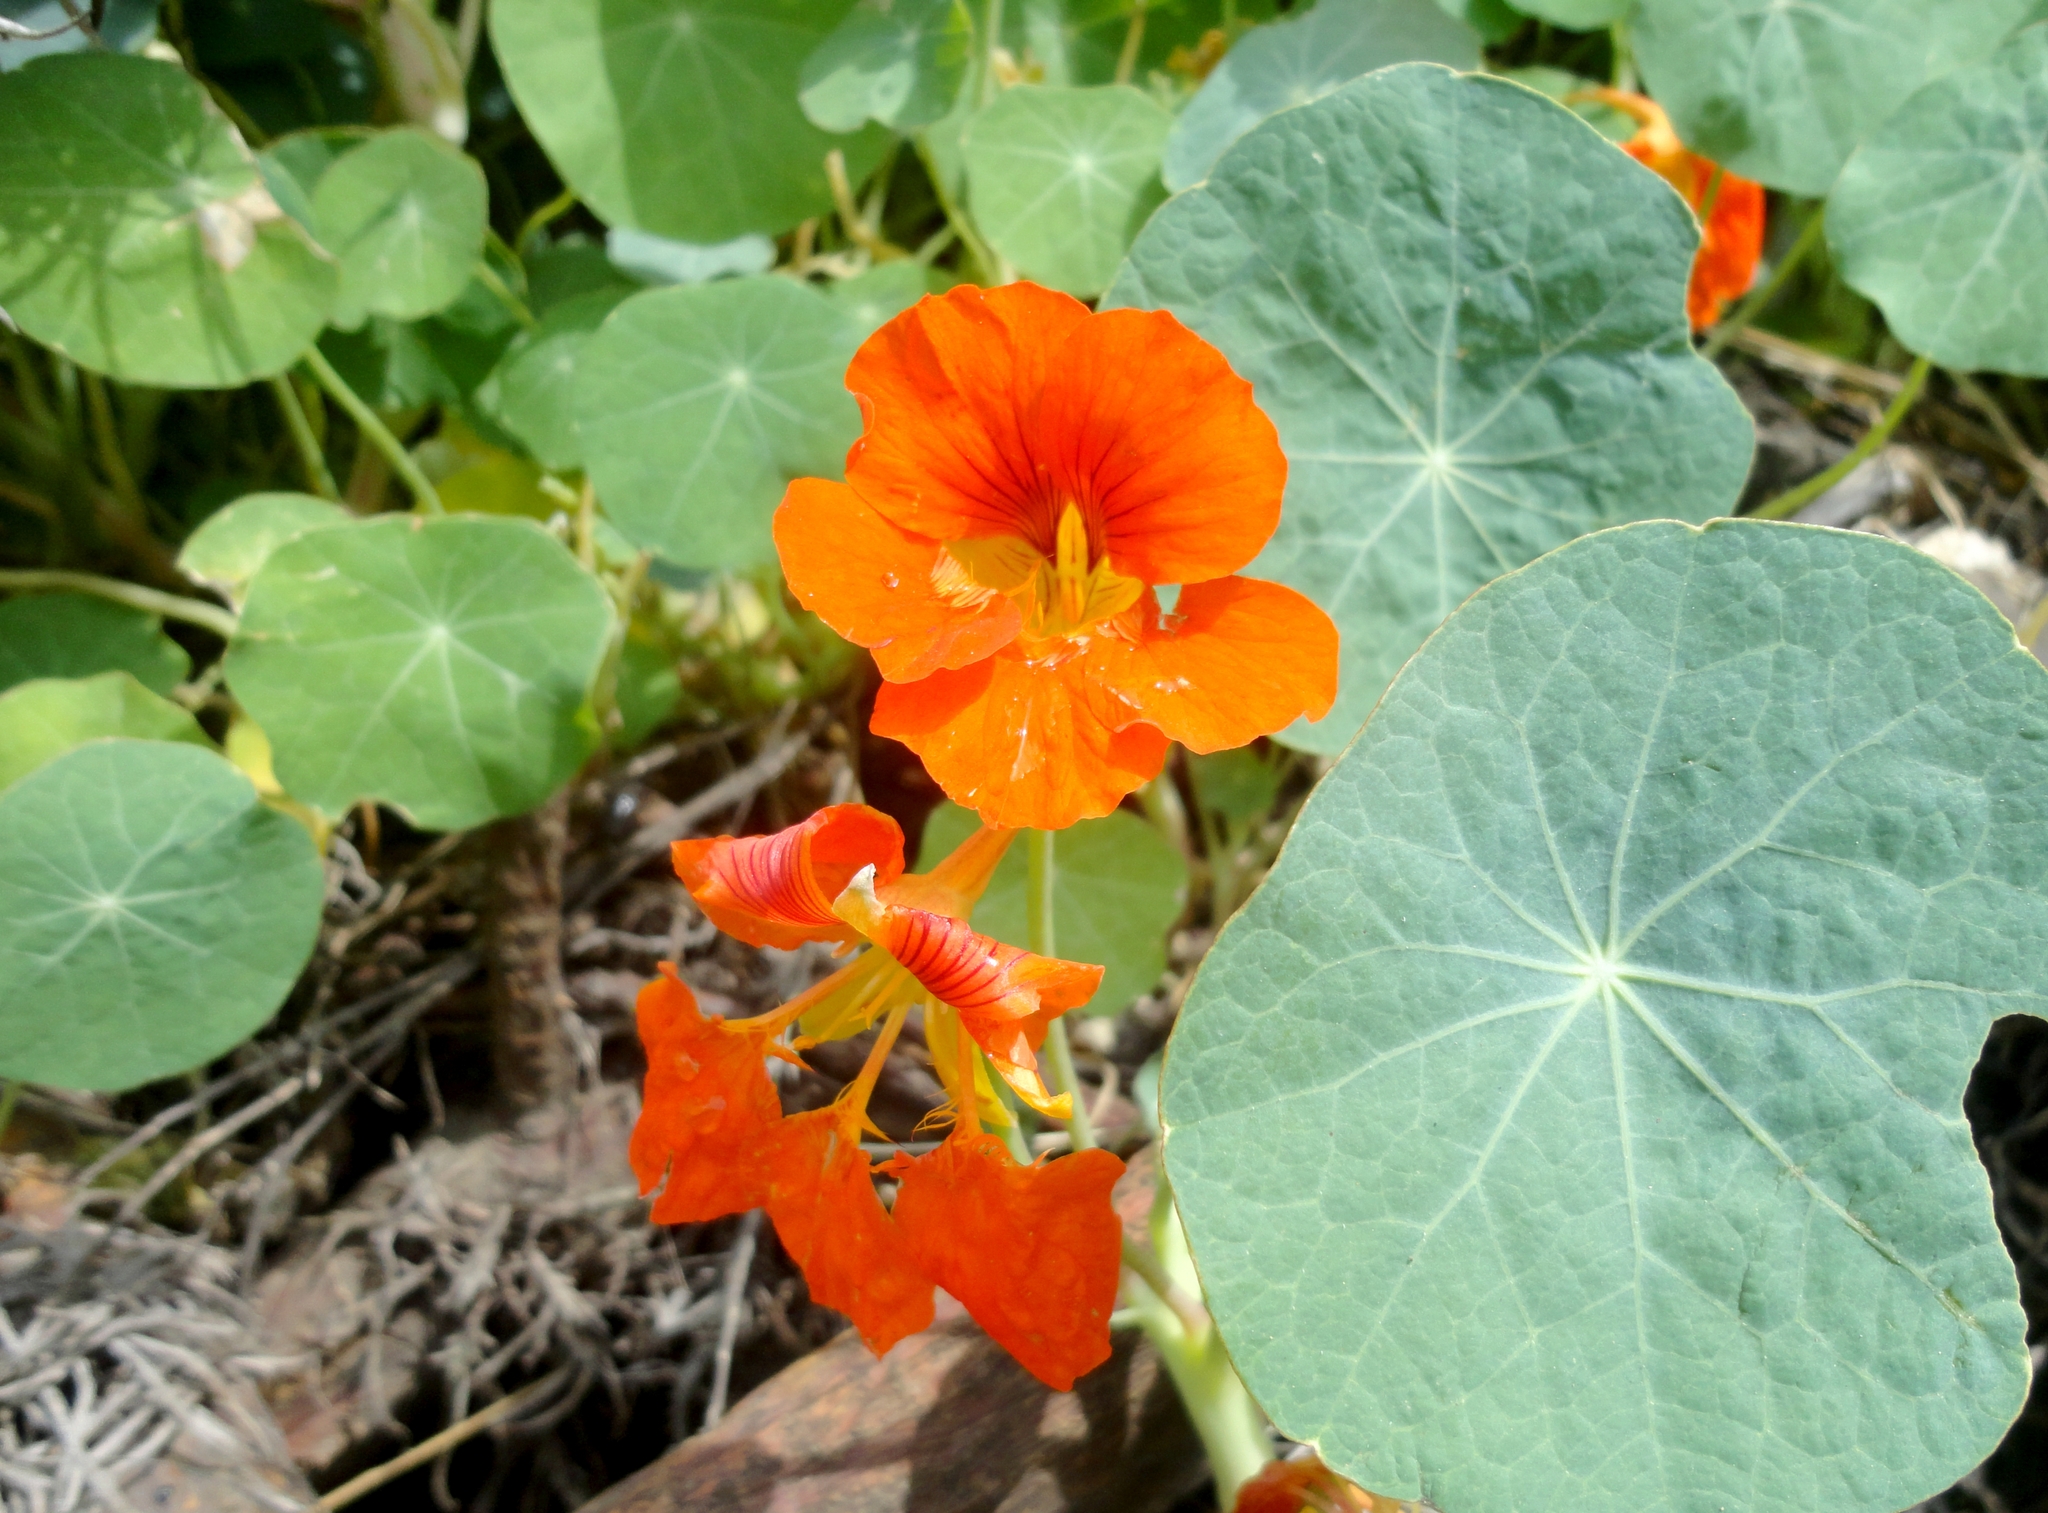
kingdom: Plantae
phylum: Tracheophyta
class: Magnoliopsida
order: Brassicales
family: Tropaeolaceae
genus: Tropaeolum
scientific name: Tropaeolum majus
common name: Nasturtium
